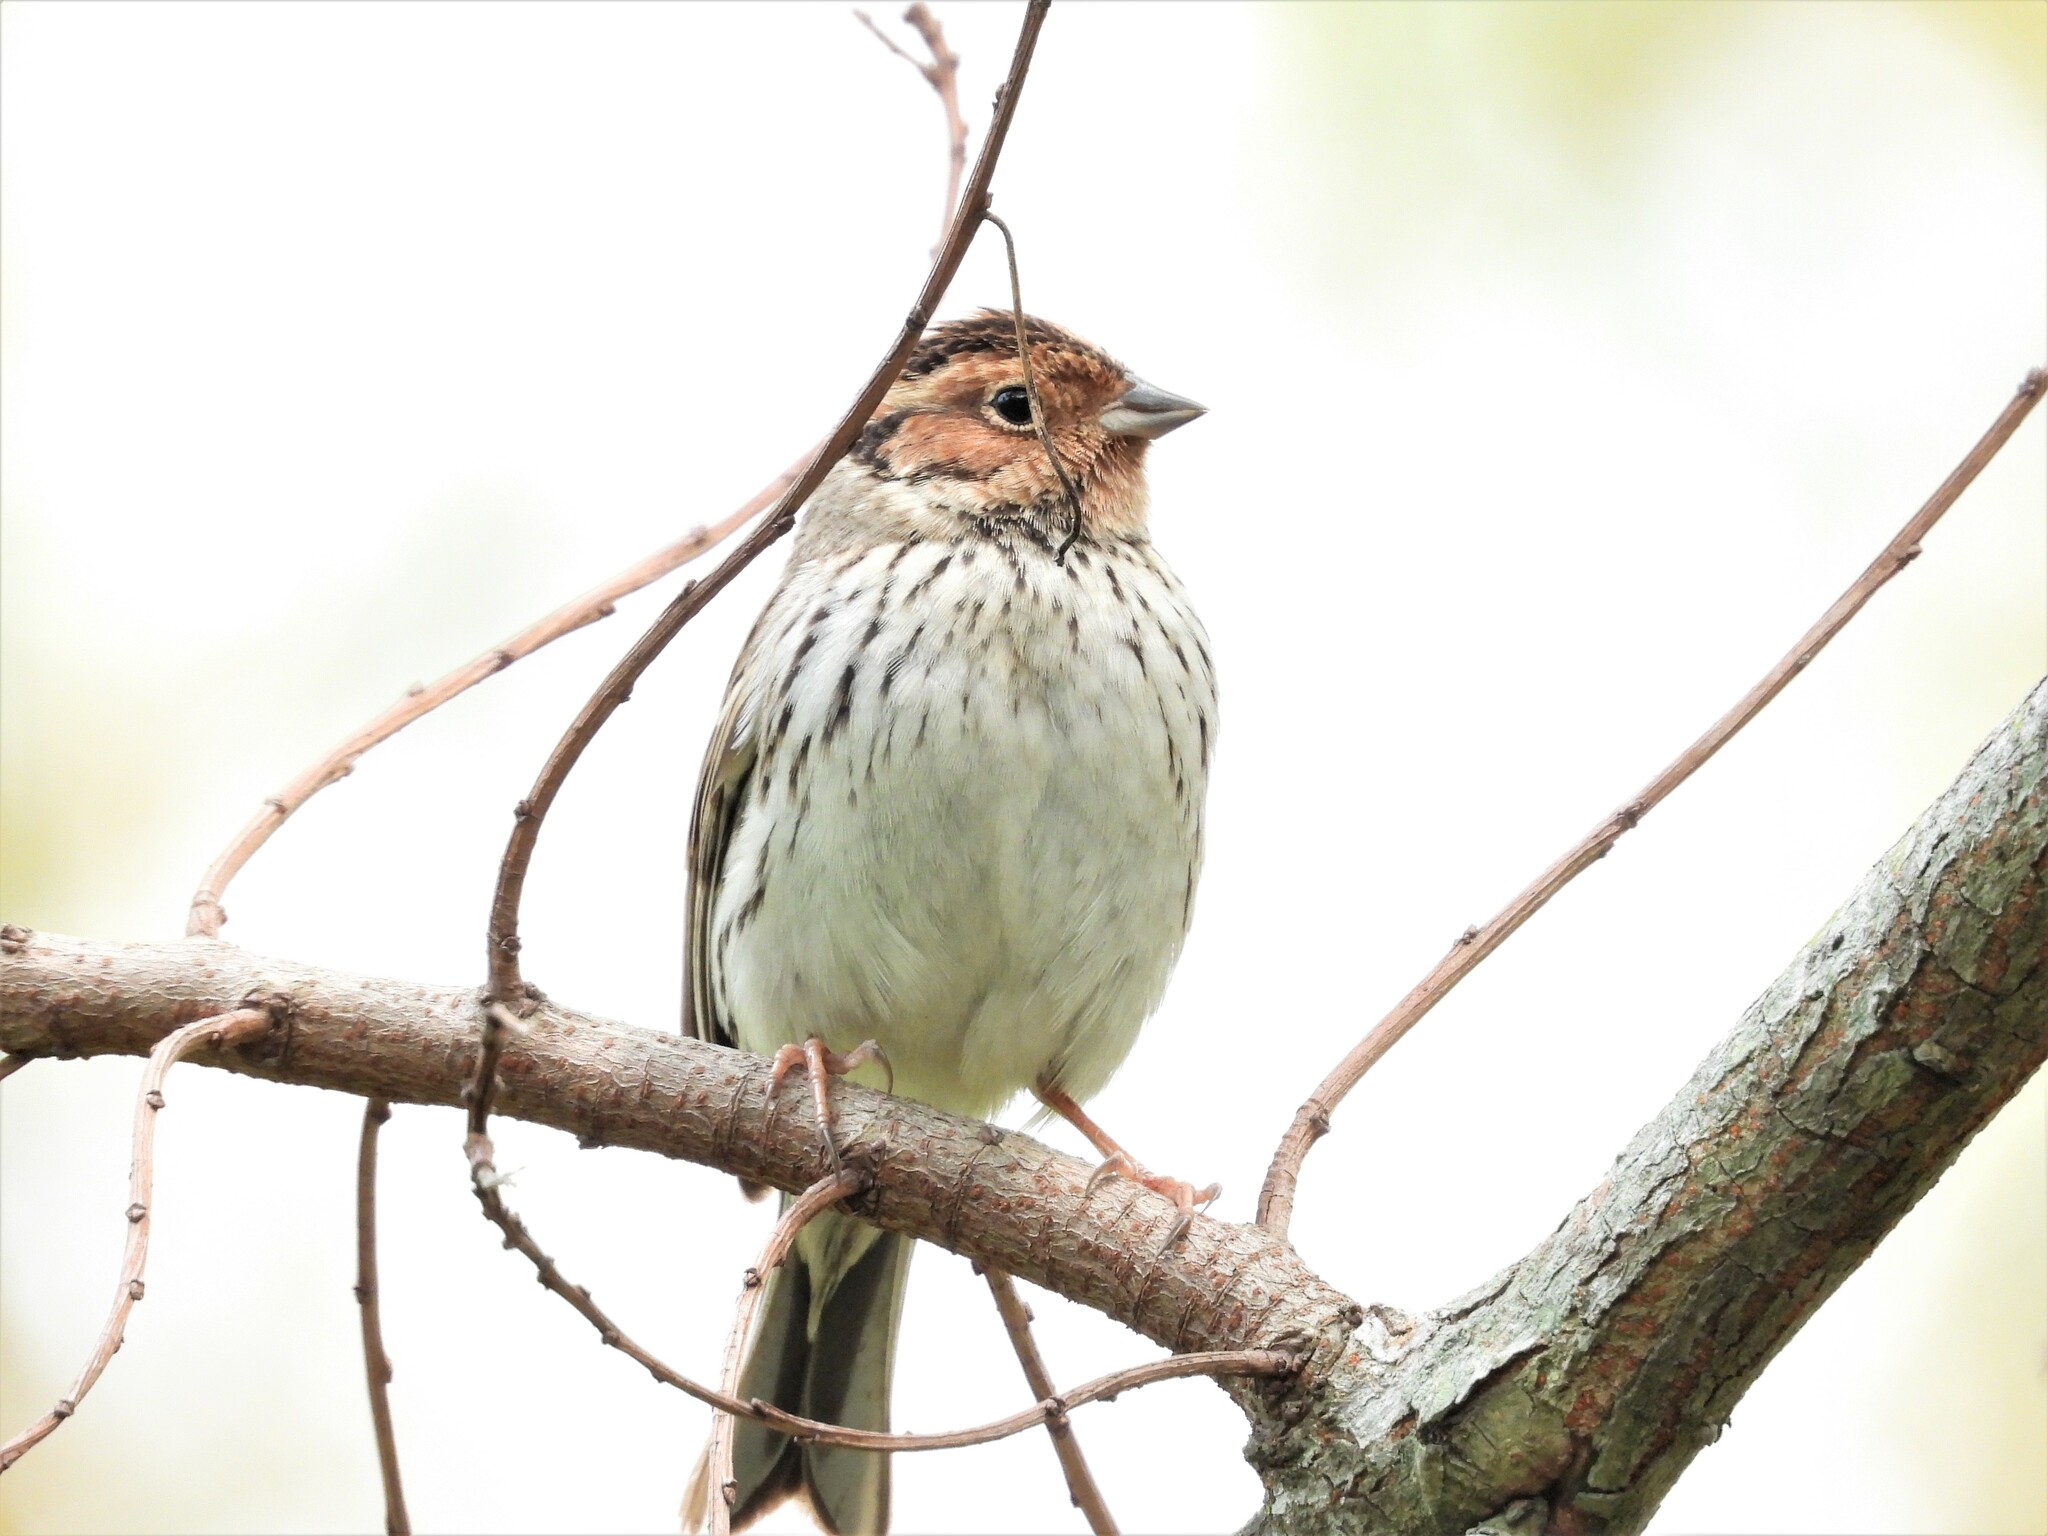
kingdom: Animalia
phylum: Chordata
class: Aves
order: Passeriformes
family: Emberizidae
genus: Emberiza
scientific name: Emberiza pusilla
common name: Little bunting
